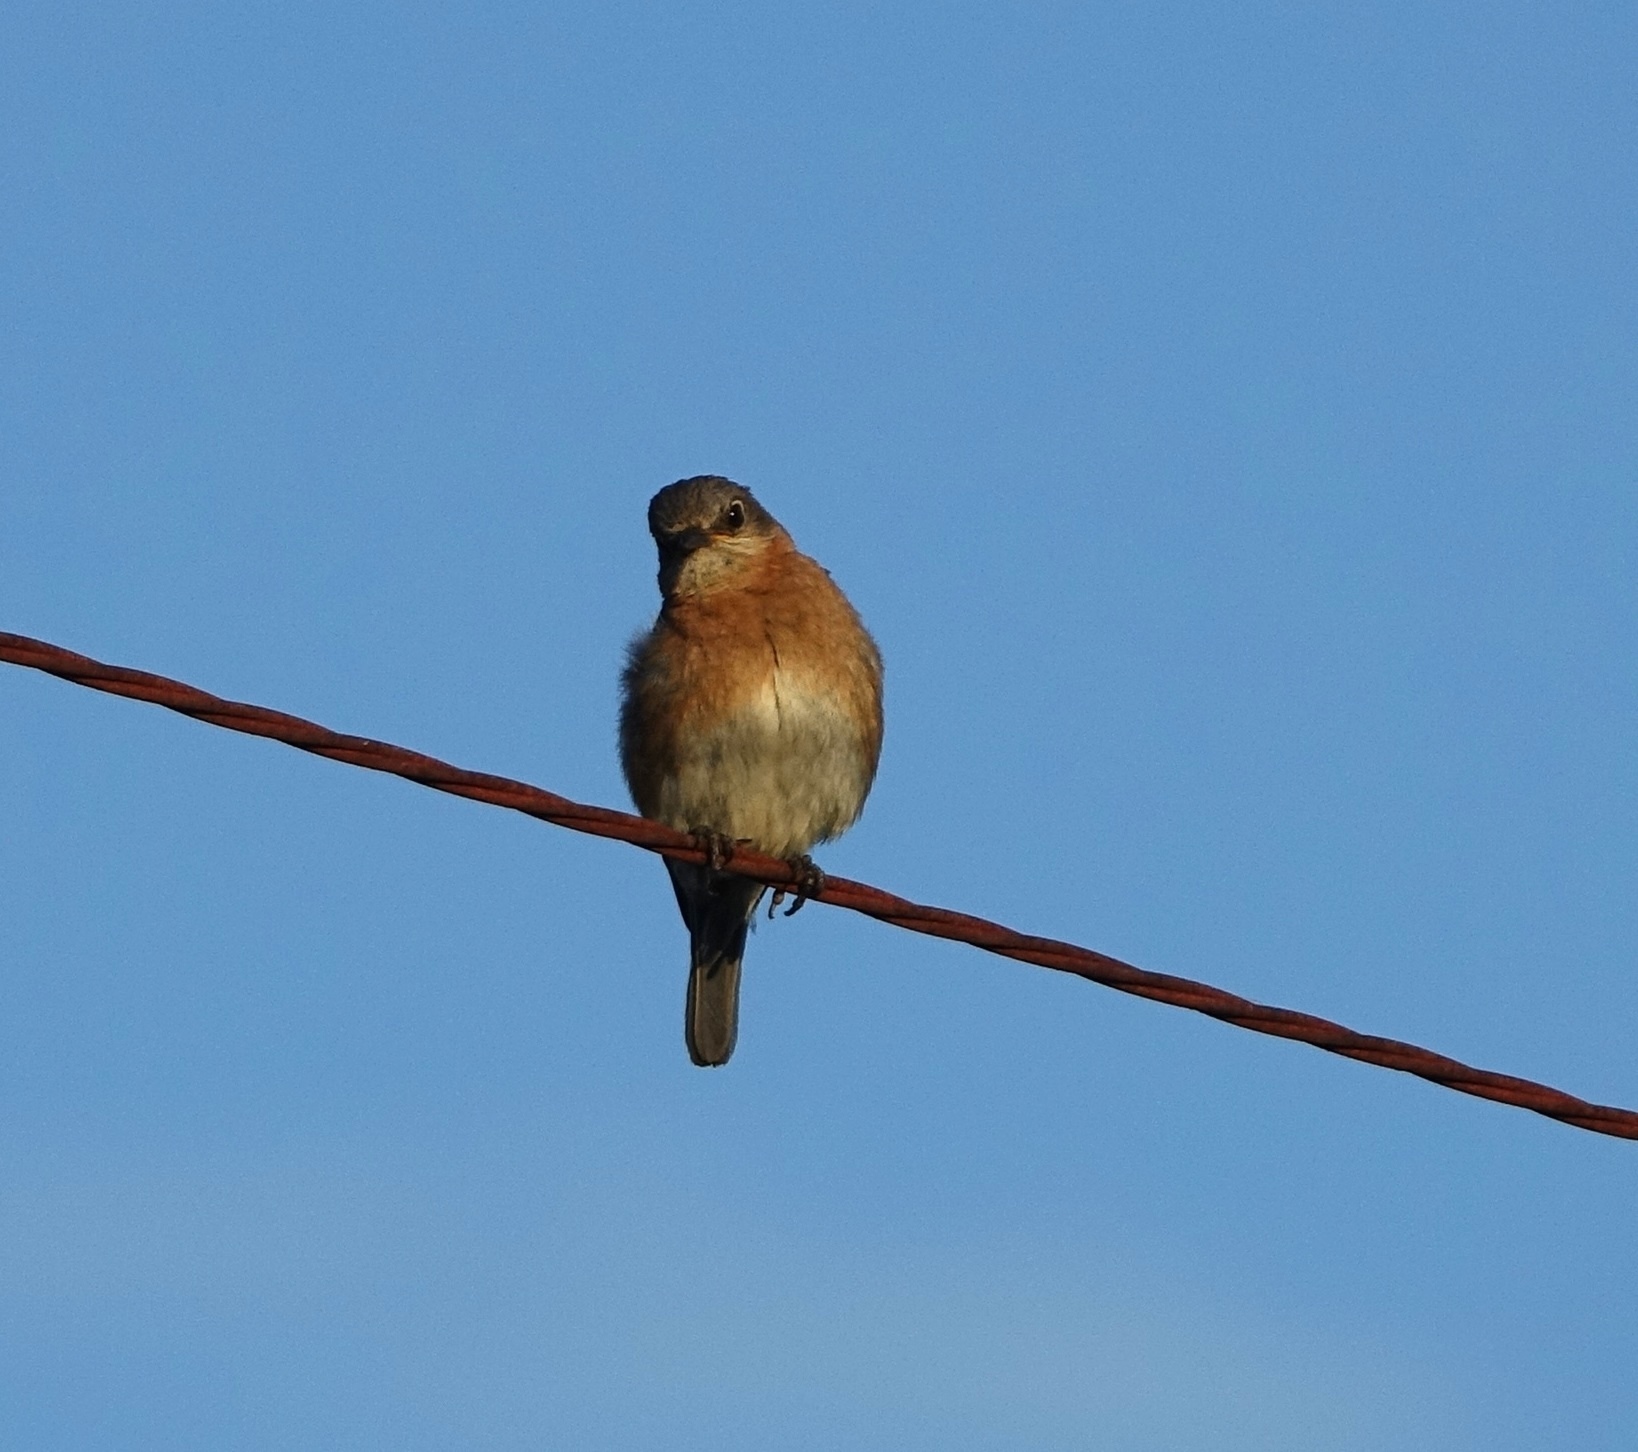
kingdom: Animalia
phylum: Chordata
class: Aves
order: Passeriformes
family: Turdidae
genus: Sialia
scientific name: Sialia sialis
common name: Eastern bluebird
